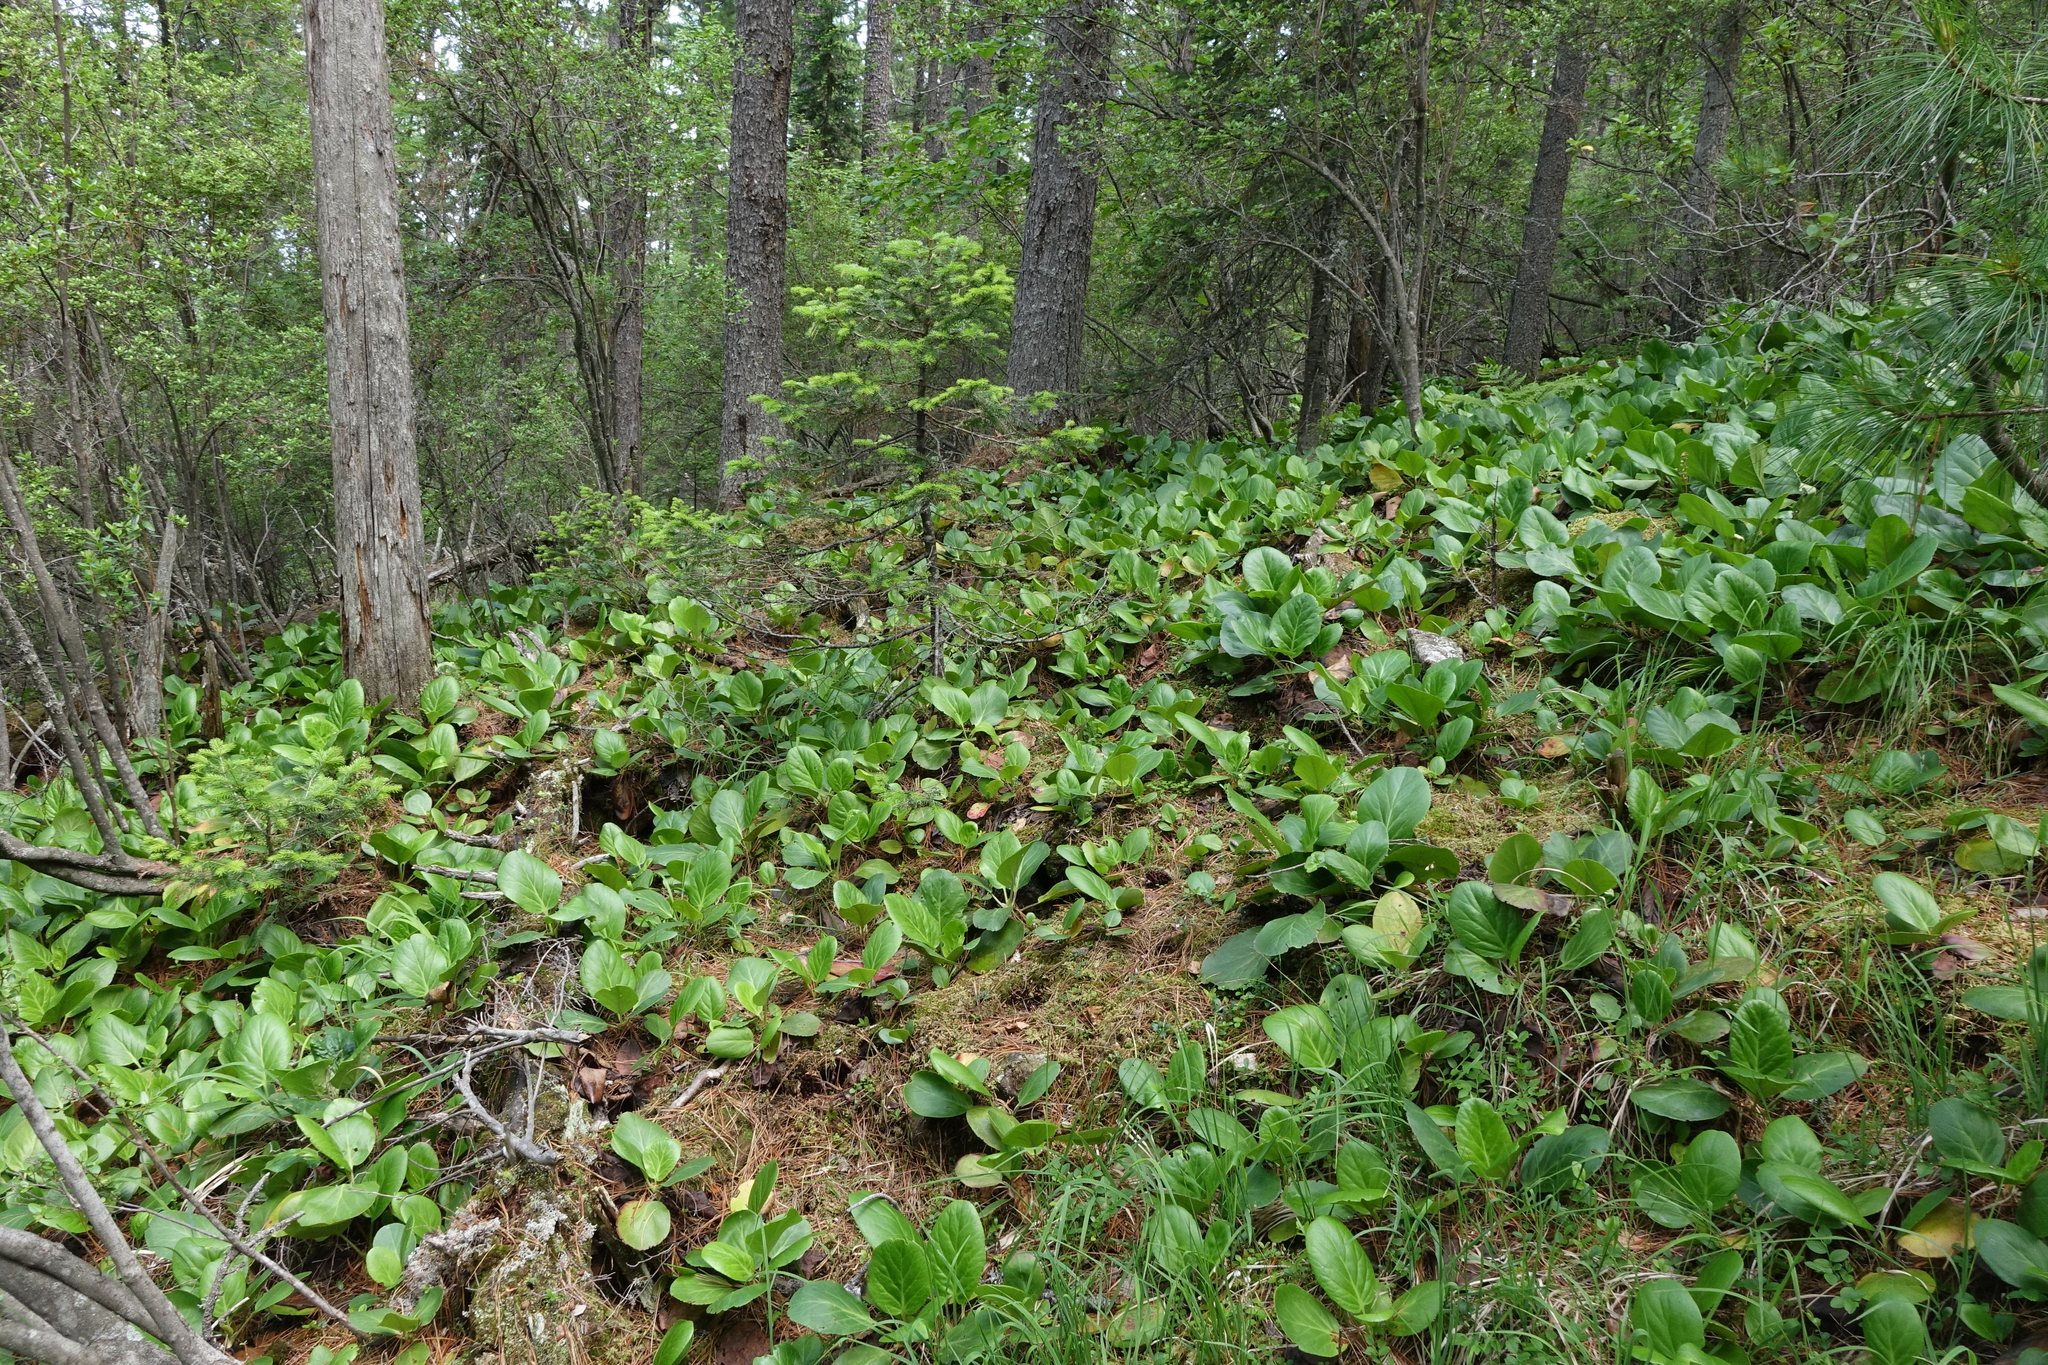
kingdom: Plantae
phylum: Tracheophyta
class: Magnoliopsida
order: Saxifragales
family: Saxifragaceae
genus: Bergenia
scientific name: Bergenia crassifolia
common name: Elephant-ears
